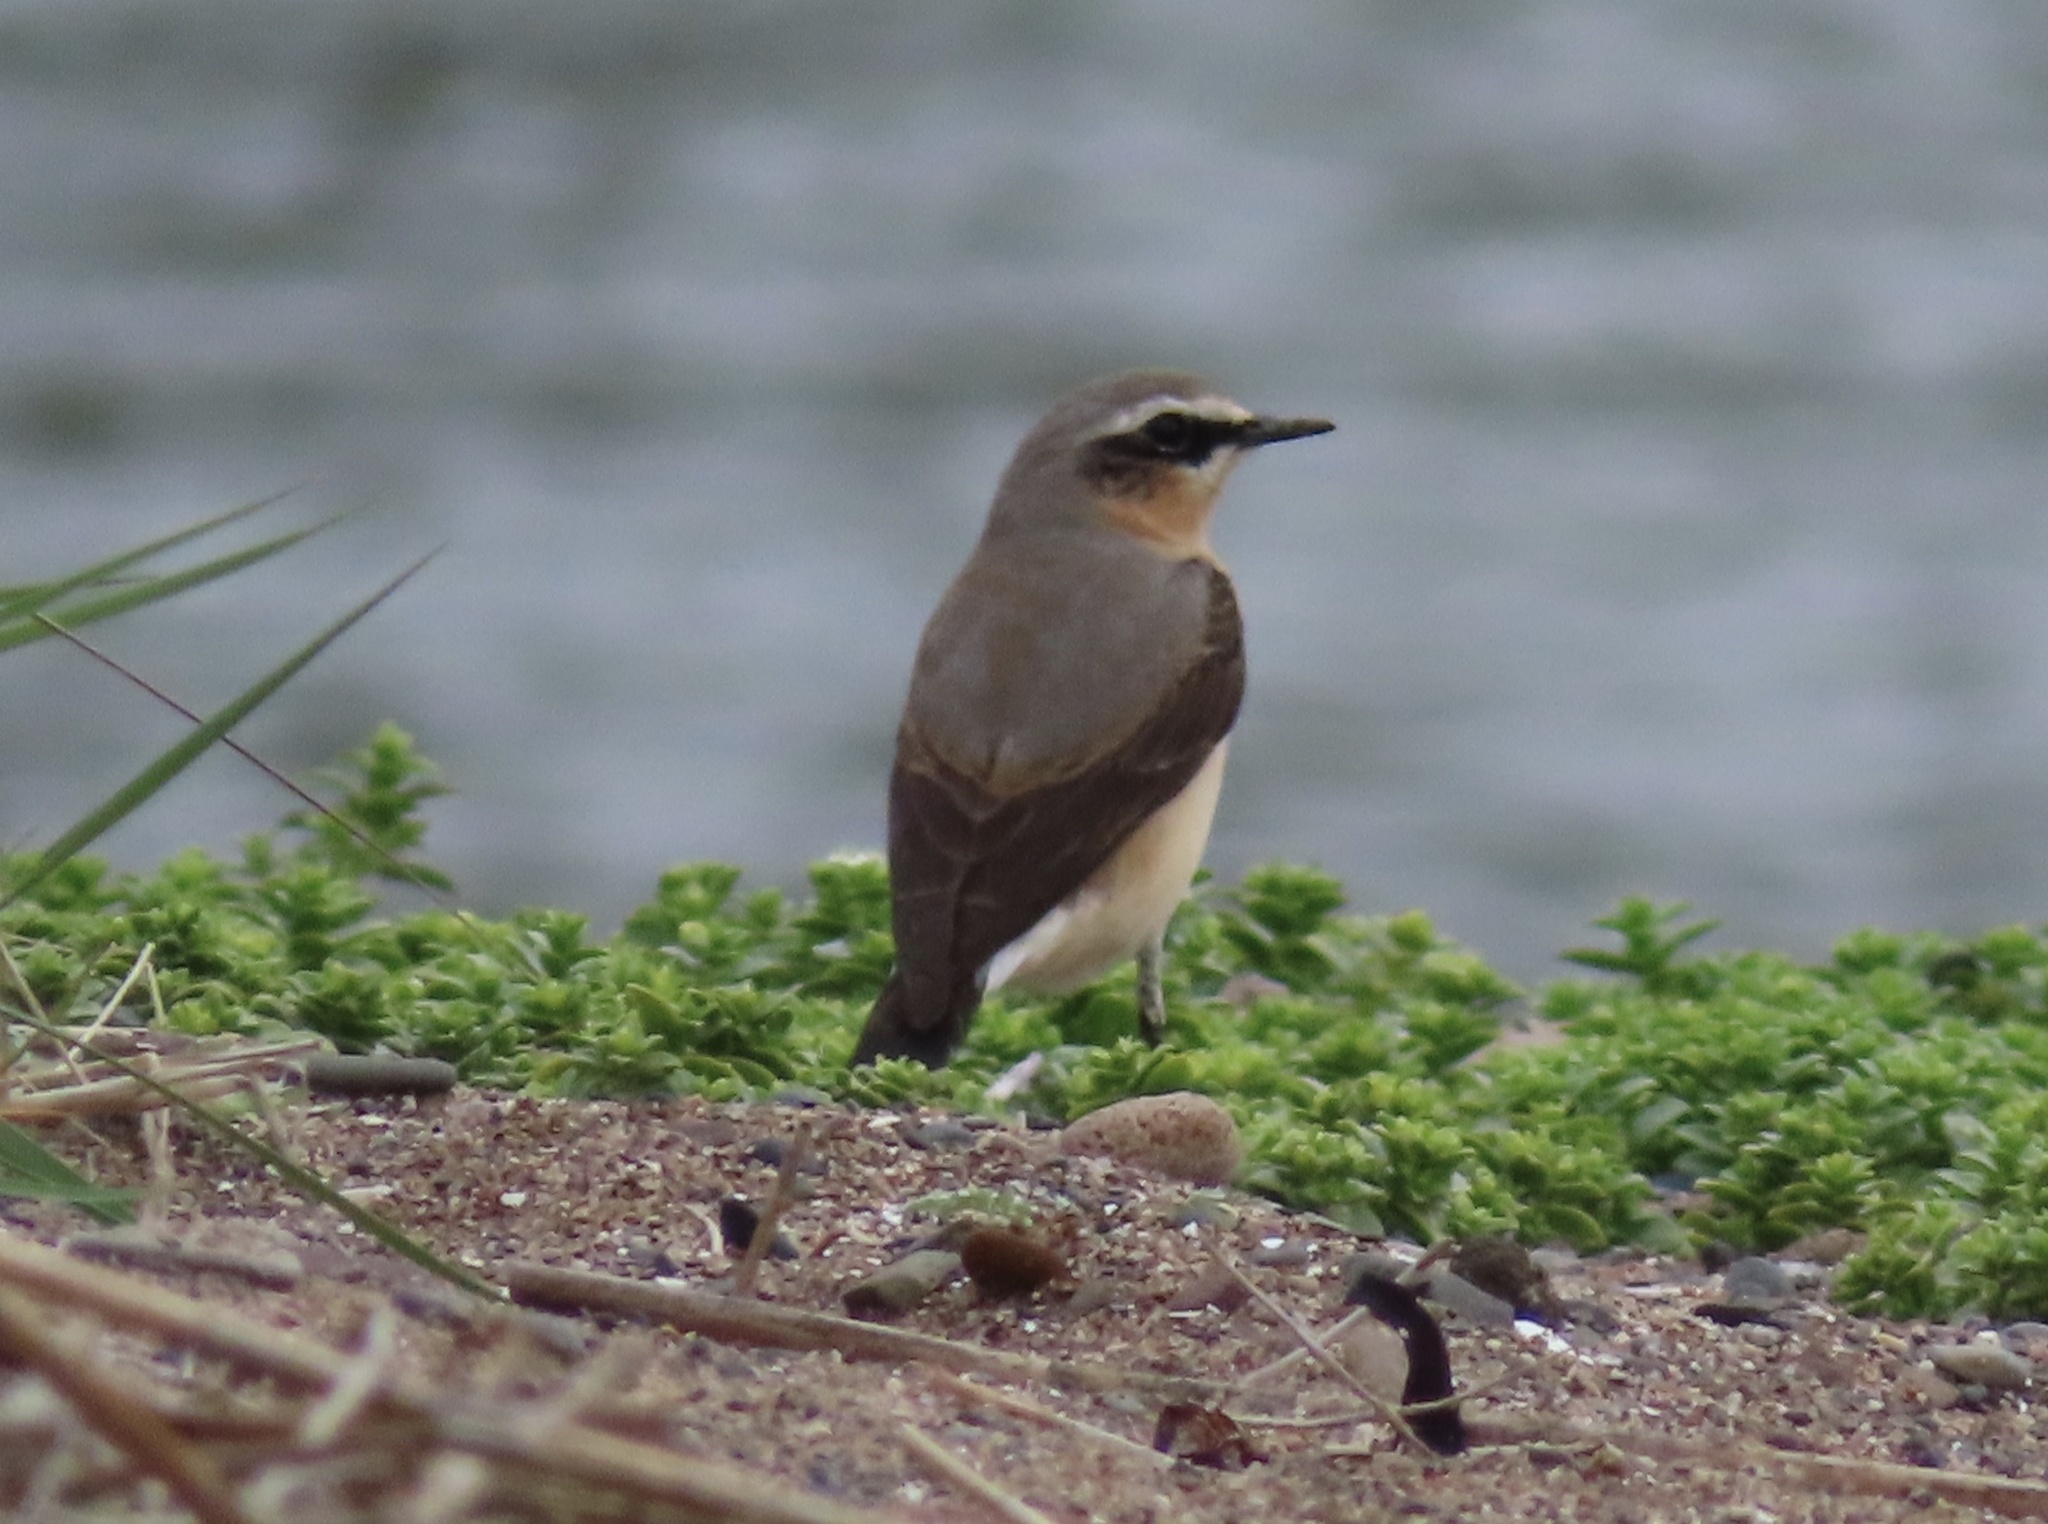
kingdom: Animalia
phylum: Chordata
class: Aves
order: Passeriformes
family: Muscicapidae
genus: Oenanthe
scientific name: Oenanthe oenanthe
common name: Northern wheatear
